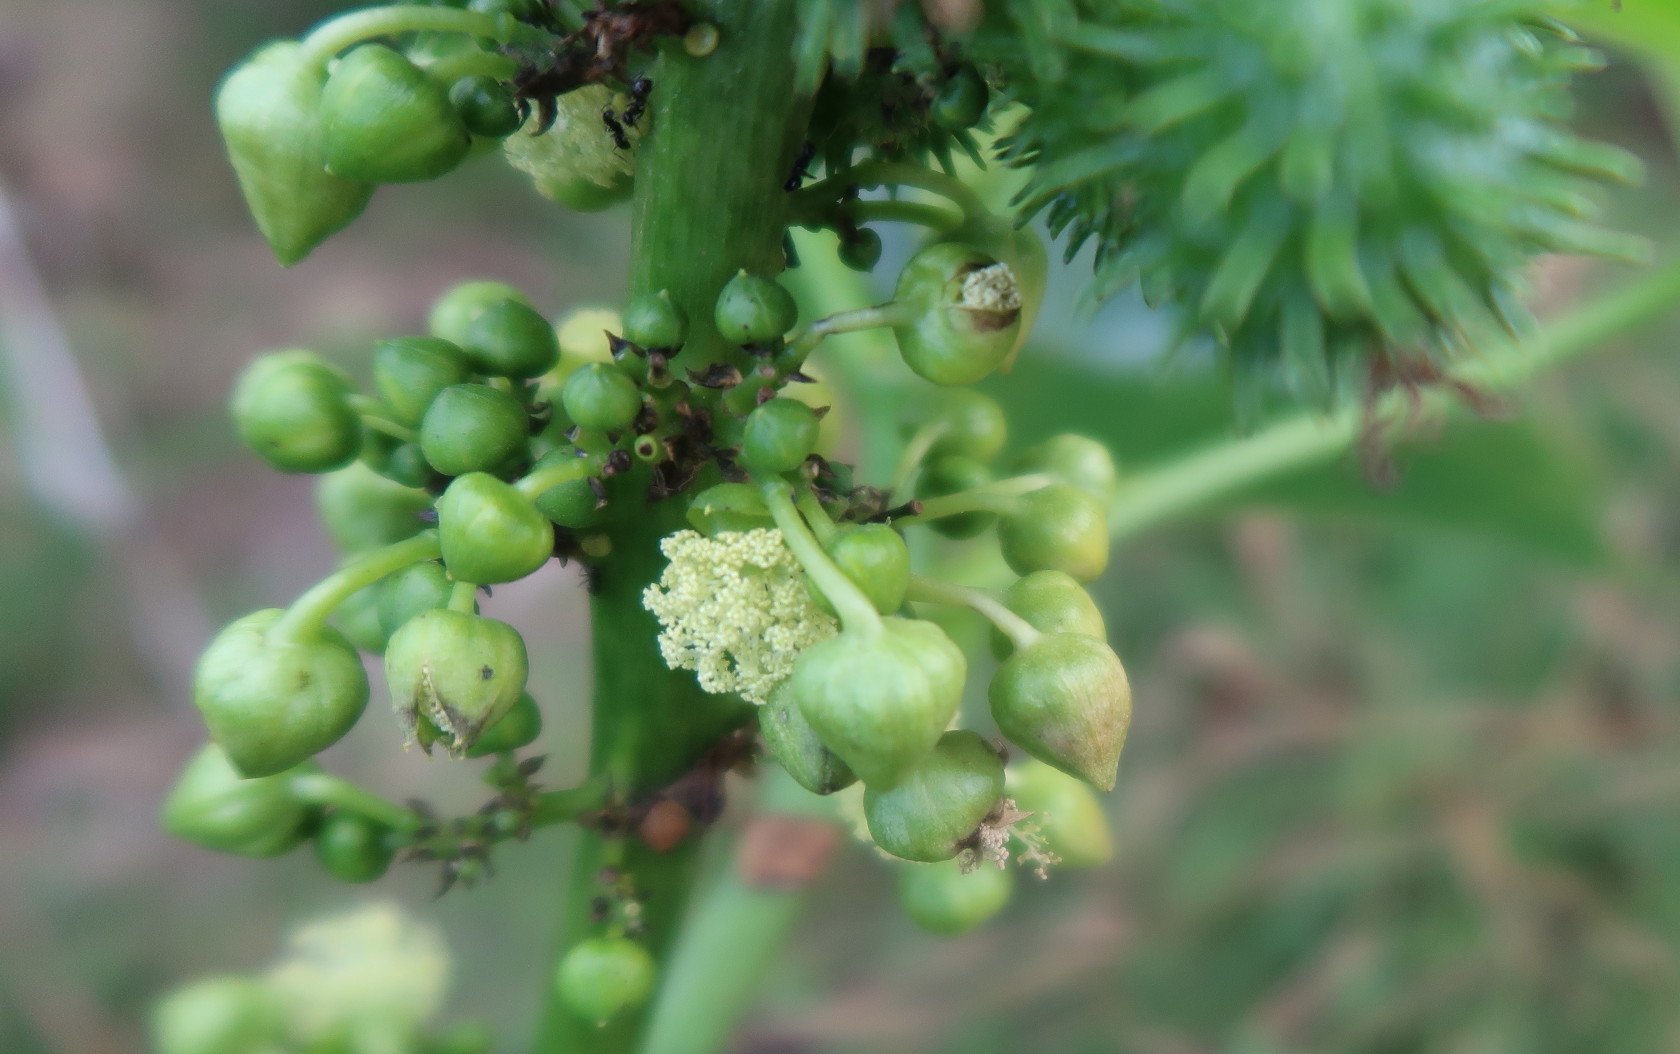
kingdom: Plantae
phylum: Tracheophyta
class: Magnoliopsida
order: Malpighiales
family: Euphorbiaceae
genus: Ricinus
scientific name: Ricinus communis
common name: Castor-oil-plant
